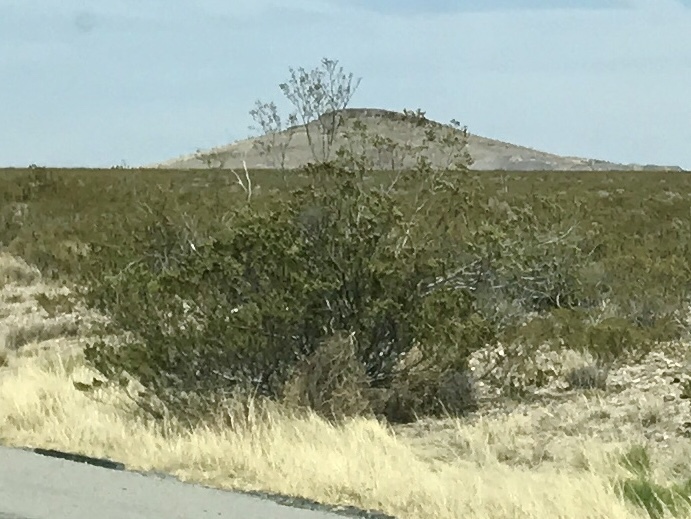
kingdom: Plantae
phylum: Tracheophyta
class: Magnoliopsida
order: Zygophyllales
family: Zygophyllaceae
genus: Larrea
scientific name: Larrea tridentata
